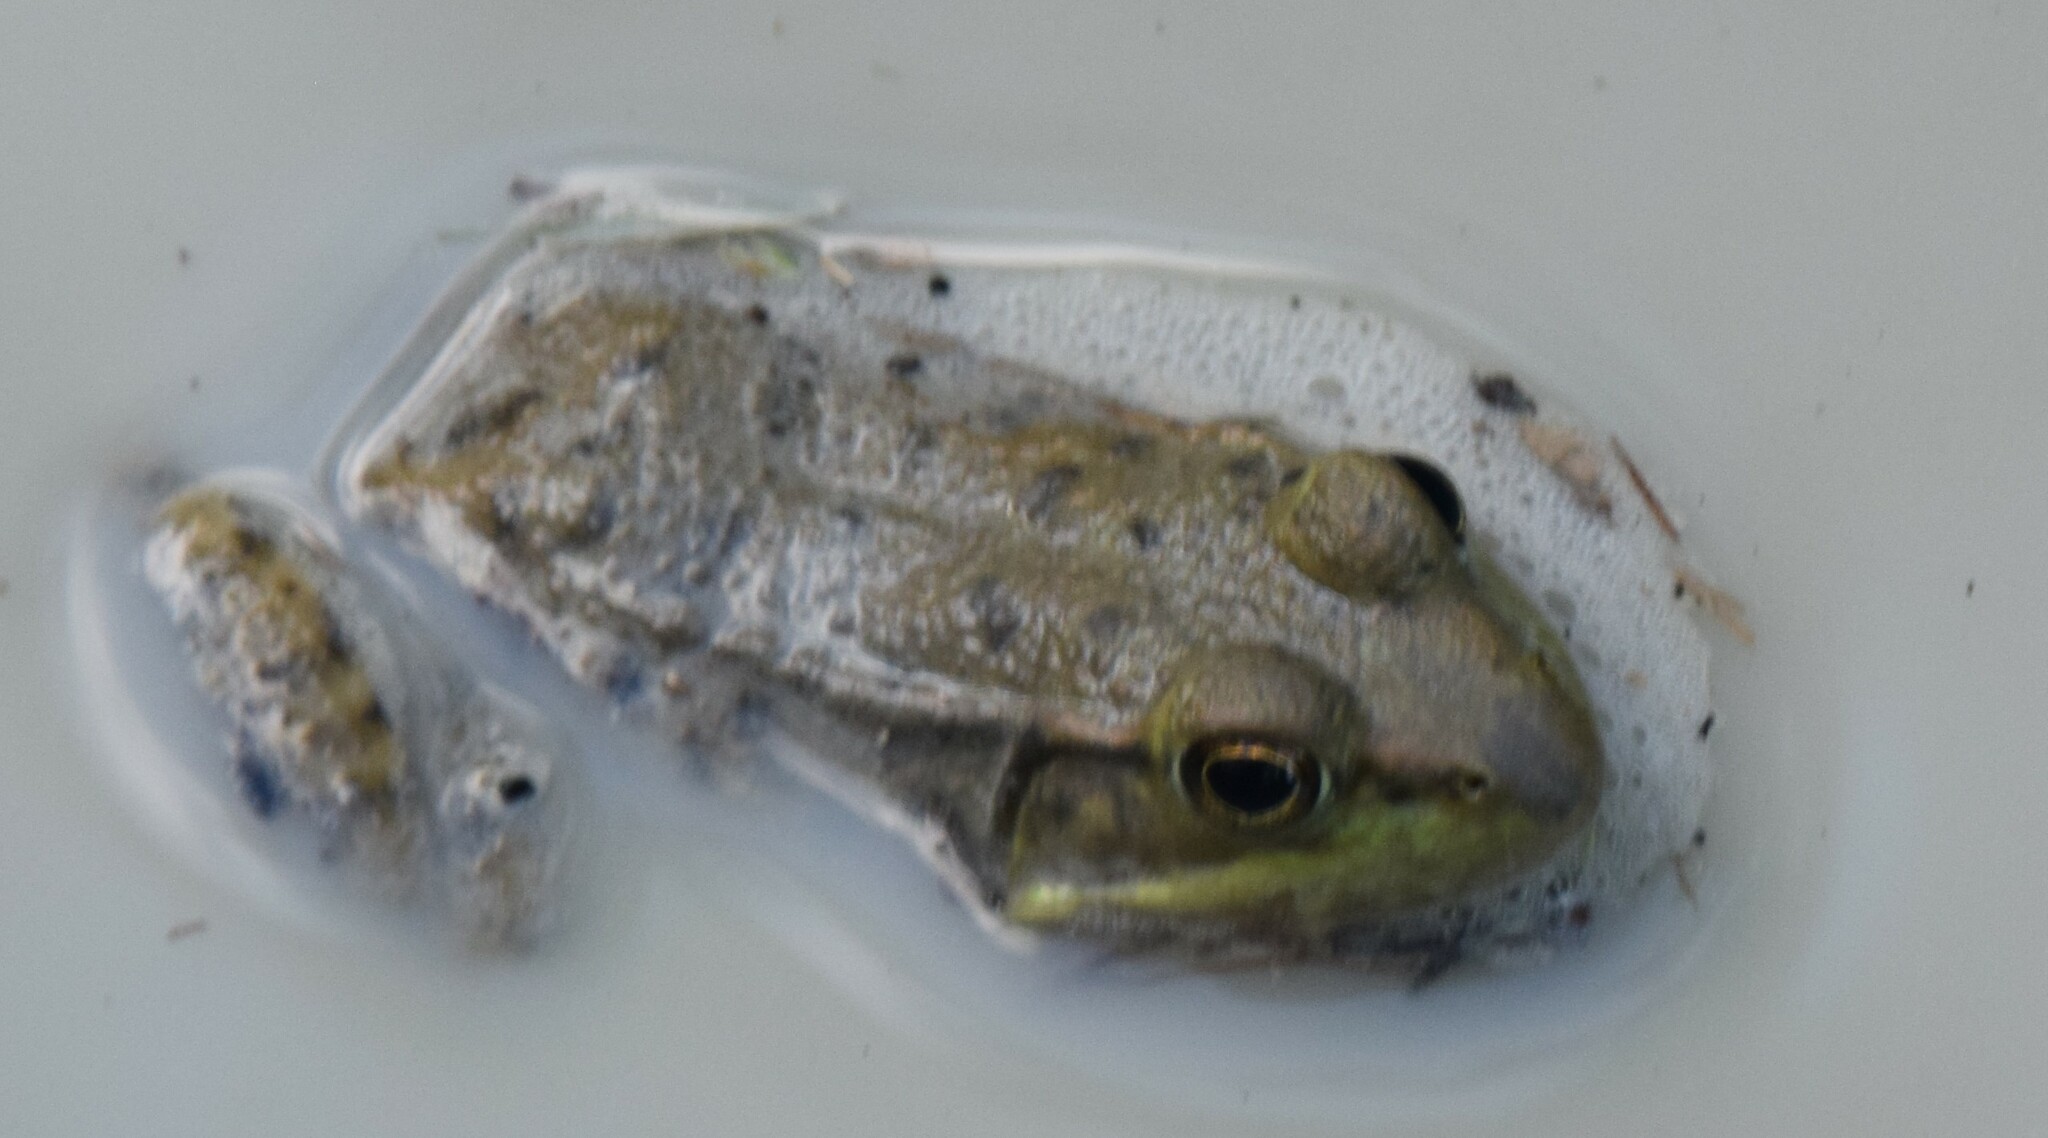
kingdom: Animalia
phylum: Chordata
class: Amphibia
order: Anura
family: Ranidae
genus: Lithobates
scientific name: Lithobates clamitans
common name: Green frog
